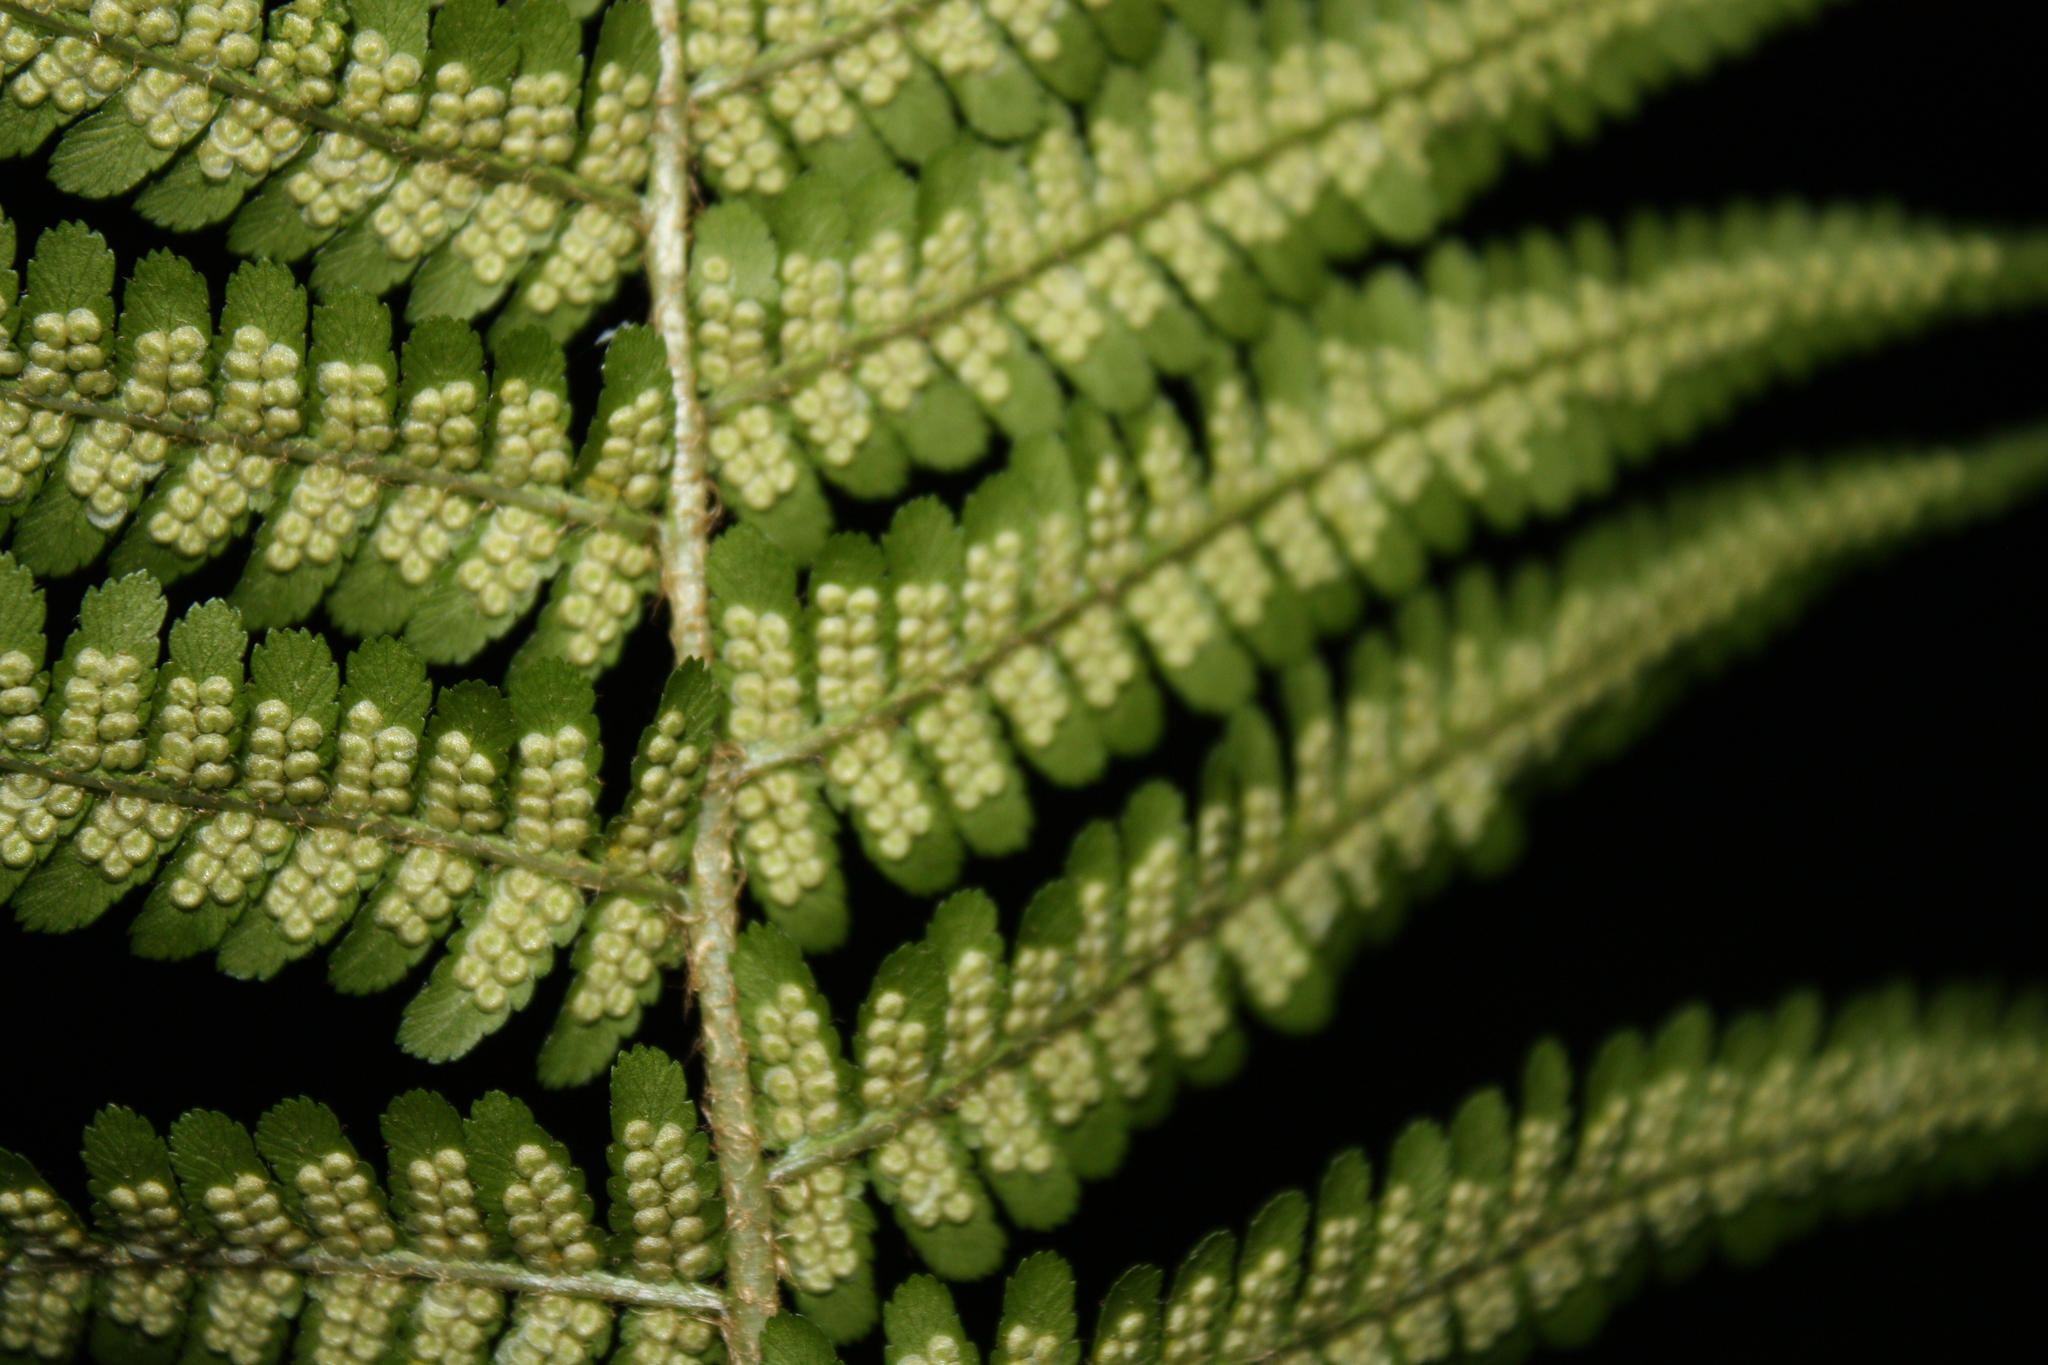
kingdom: Plantae
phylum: Tracheophyta
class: Polypodiopsida
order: Polypodiales
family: Dryopteridaceae
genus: Dryopteris
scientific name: Dryopteris filix-mas
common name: Male fern
